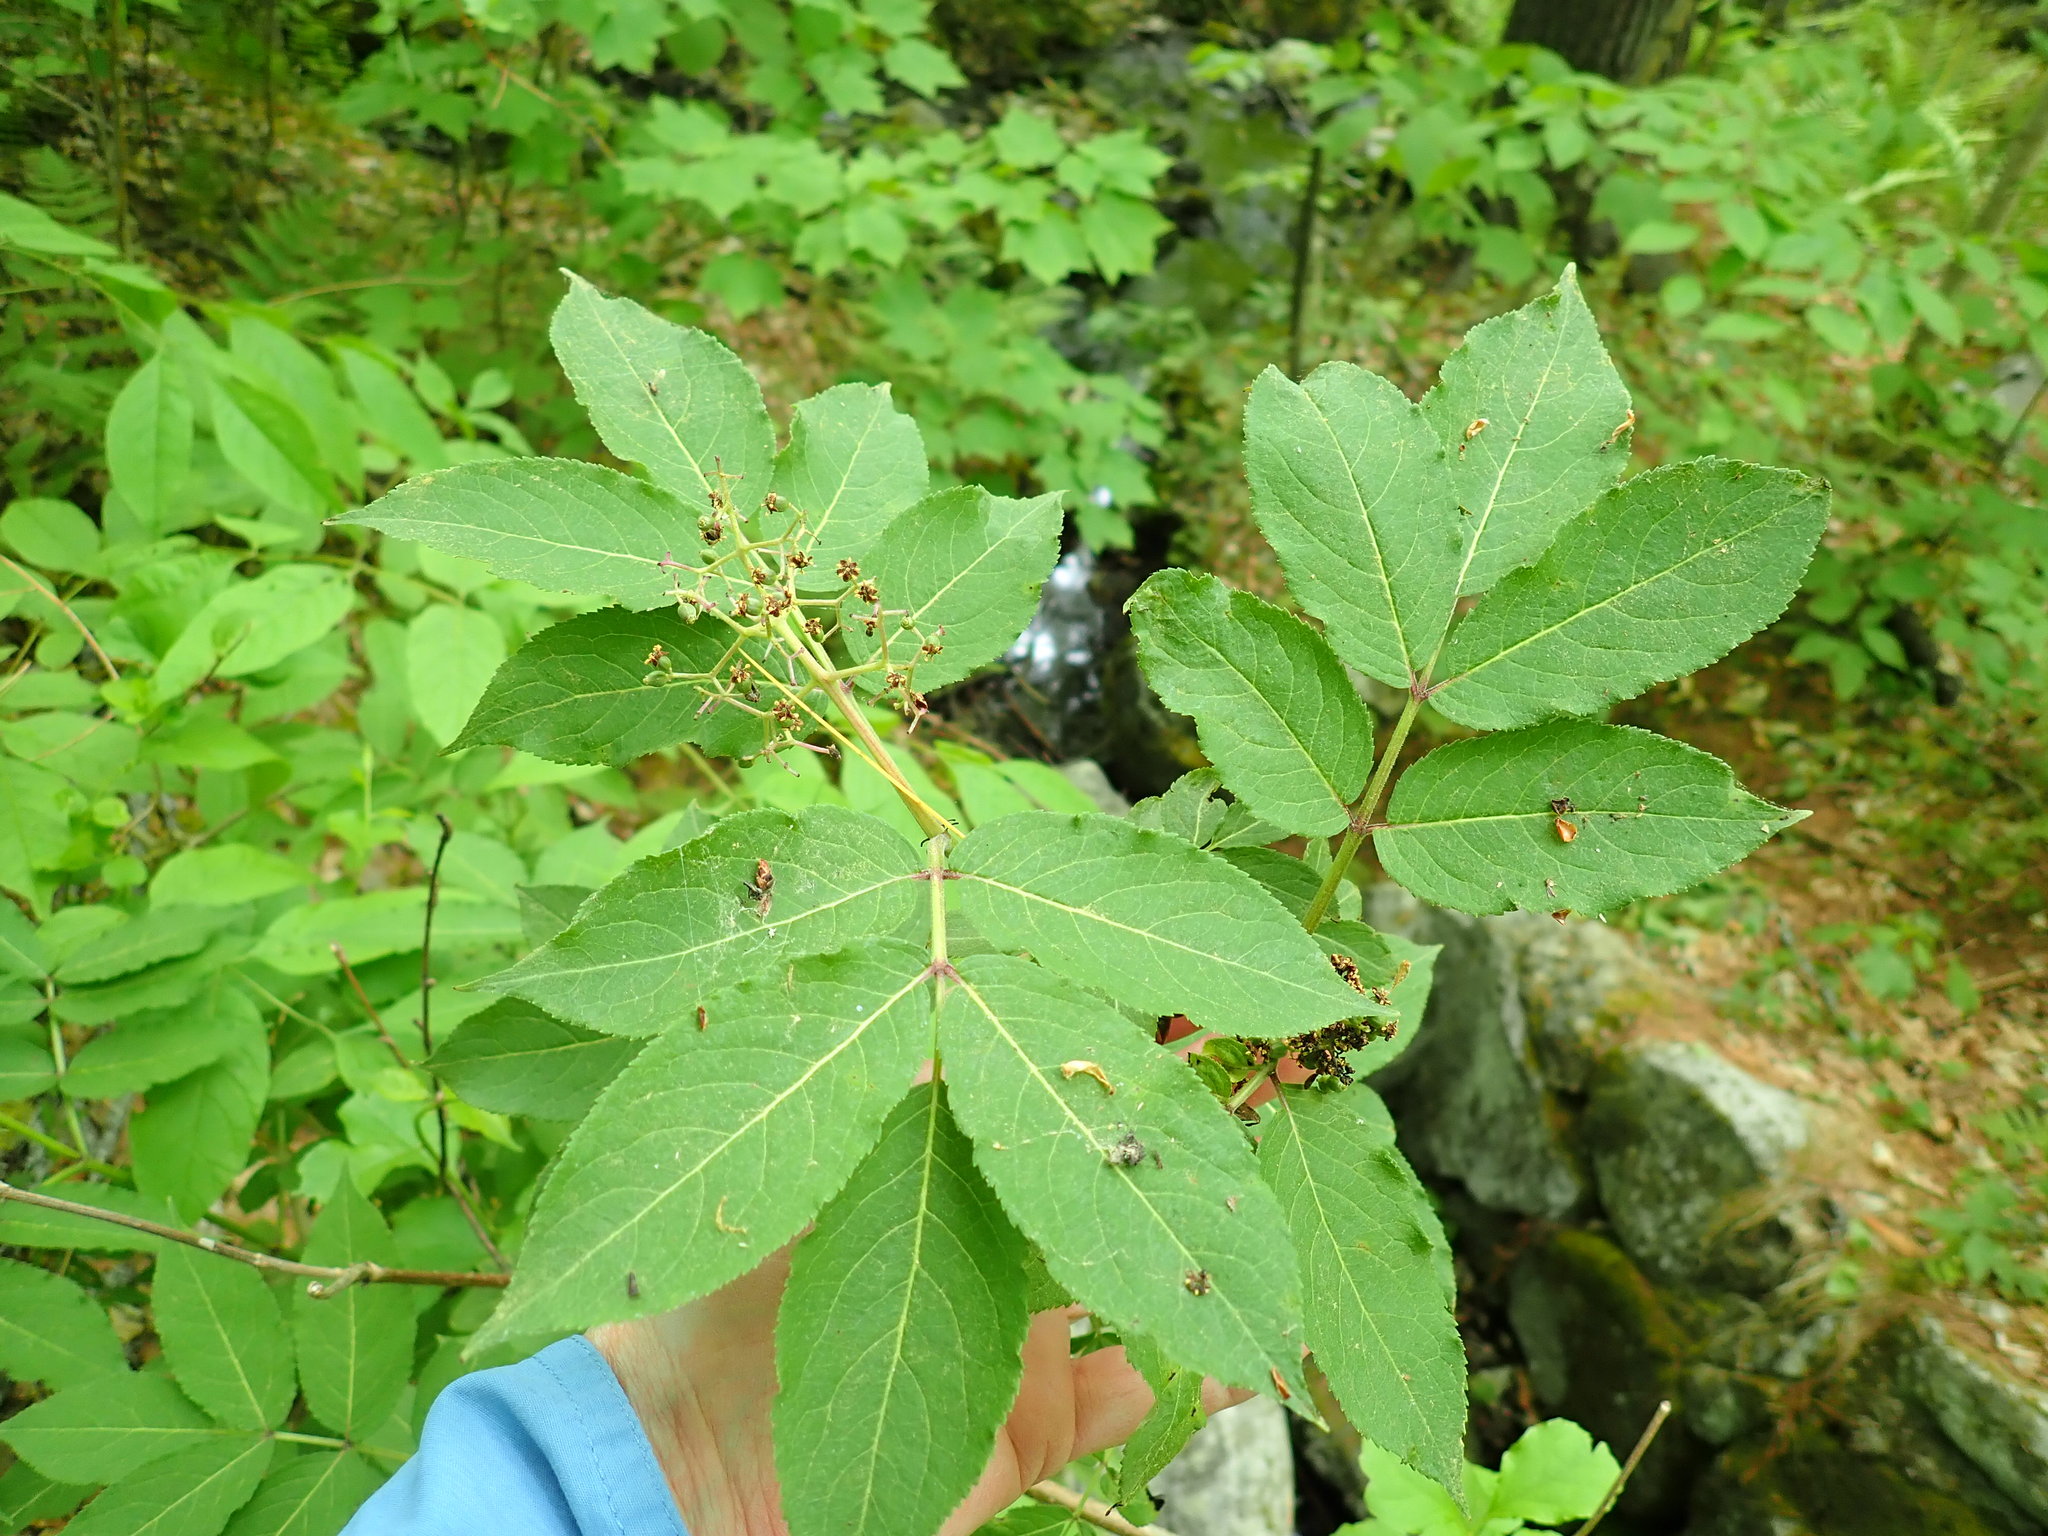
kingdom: Plantae
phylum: Tracheophyta
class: Magnoliopsida
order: Dipsacales
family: Viburnaceae
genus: Sambucus
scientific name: Sambucus racemosa
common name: Red-berried elder
